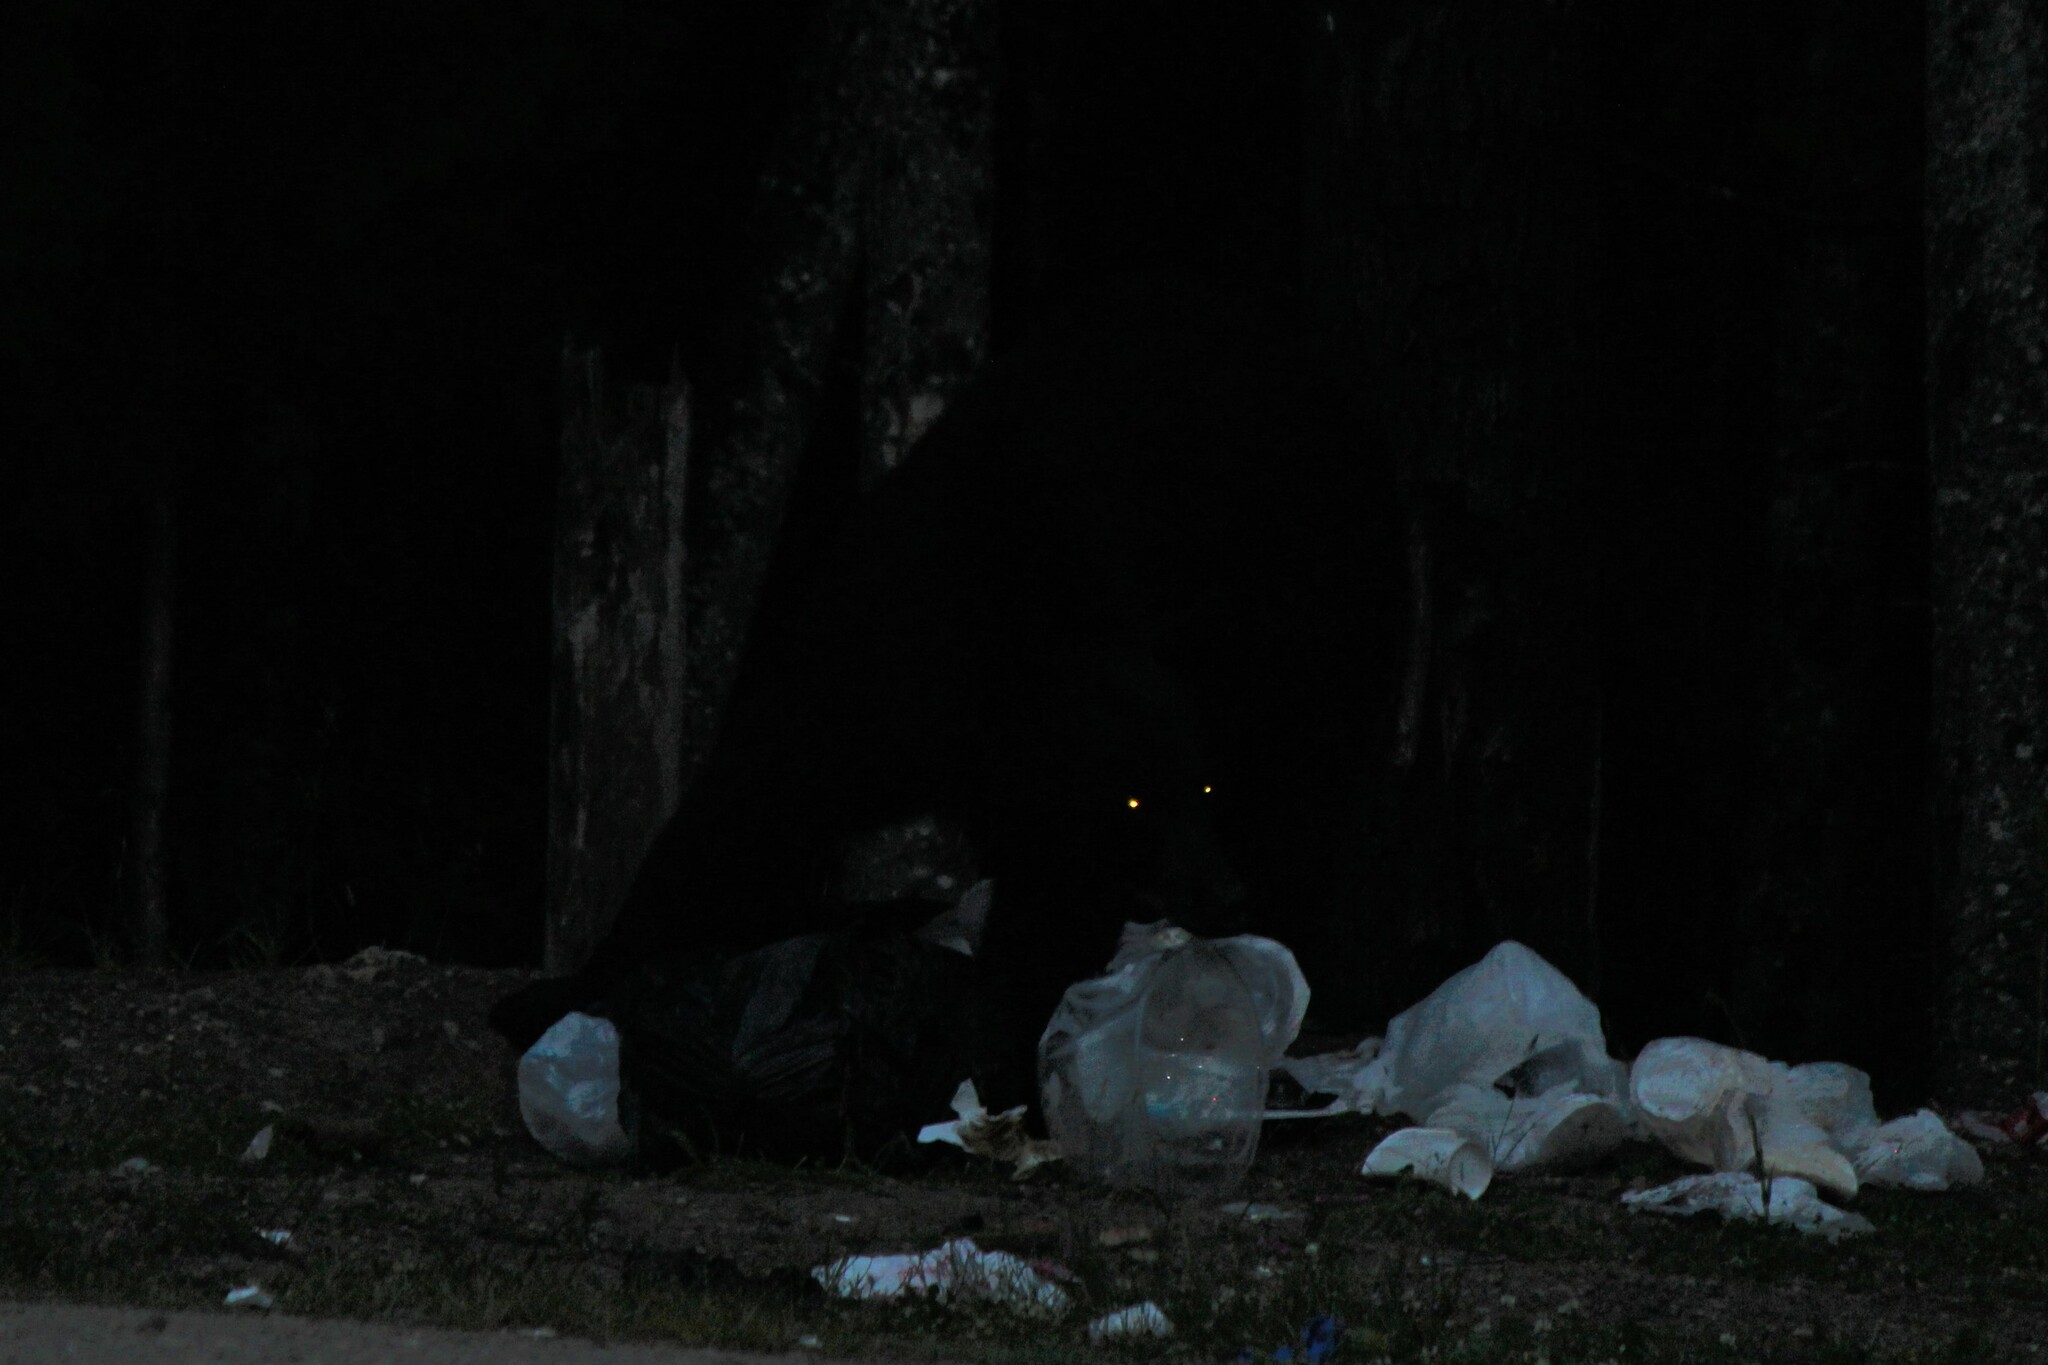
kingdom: Animalia
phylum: Chordata
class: Mammalia
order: Carnivora
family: Ursidae
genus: Ursus
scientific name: Ursus americanus
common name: American black bear
